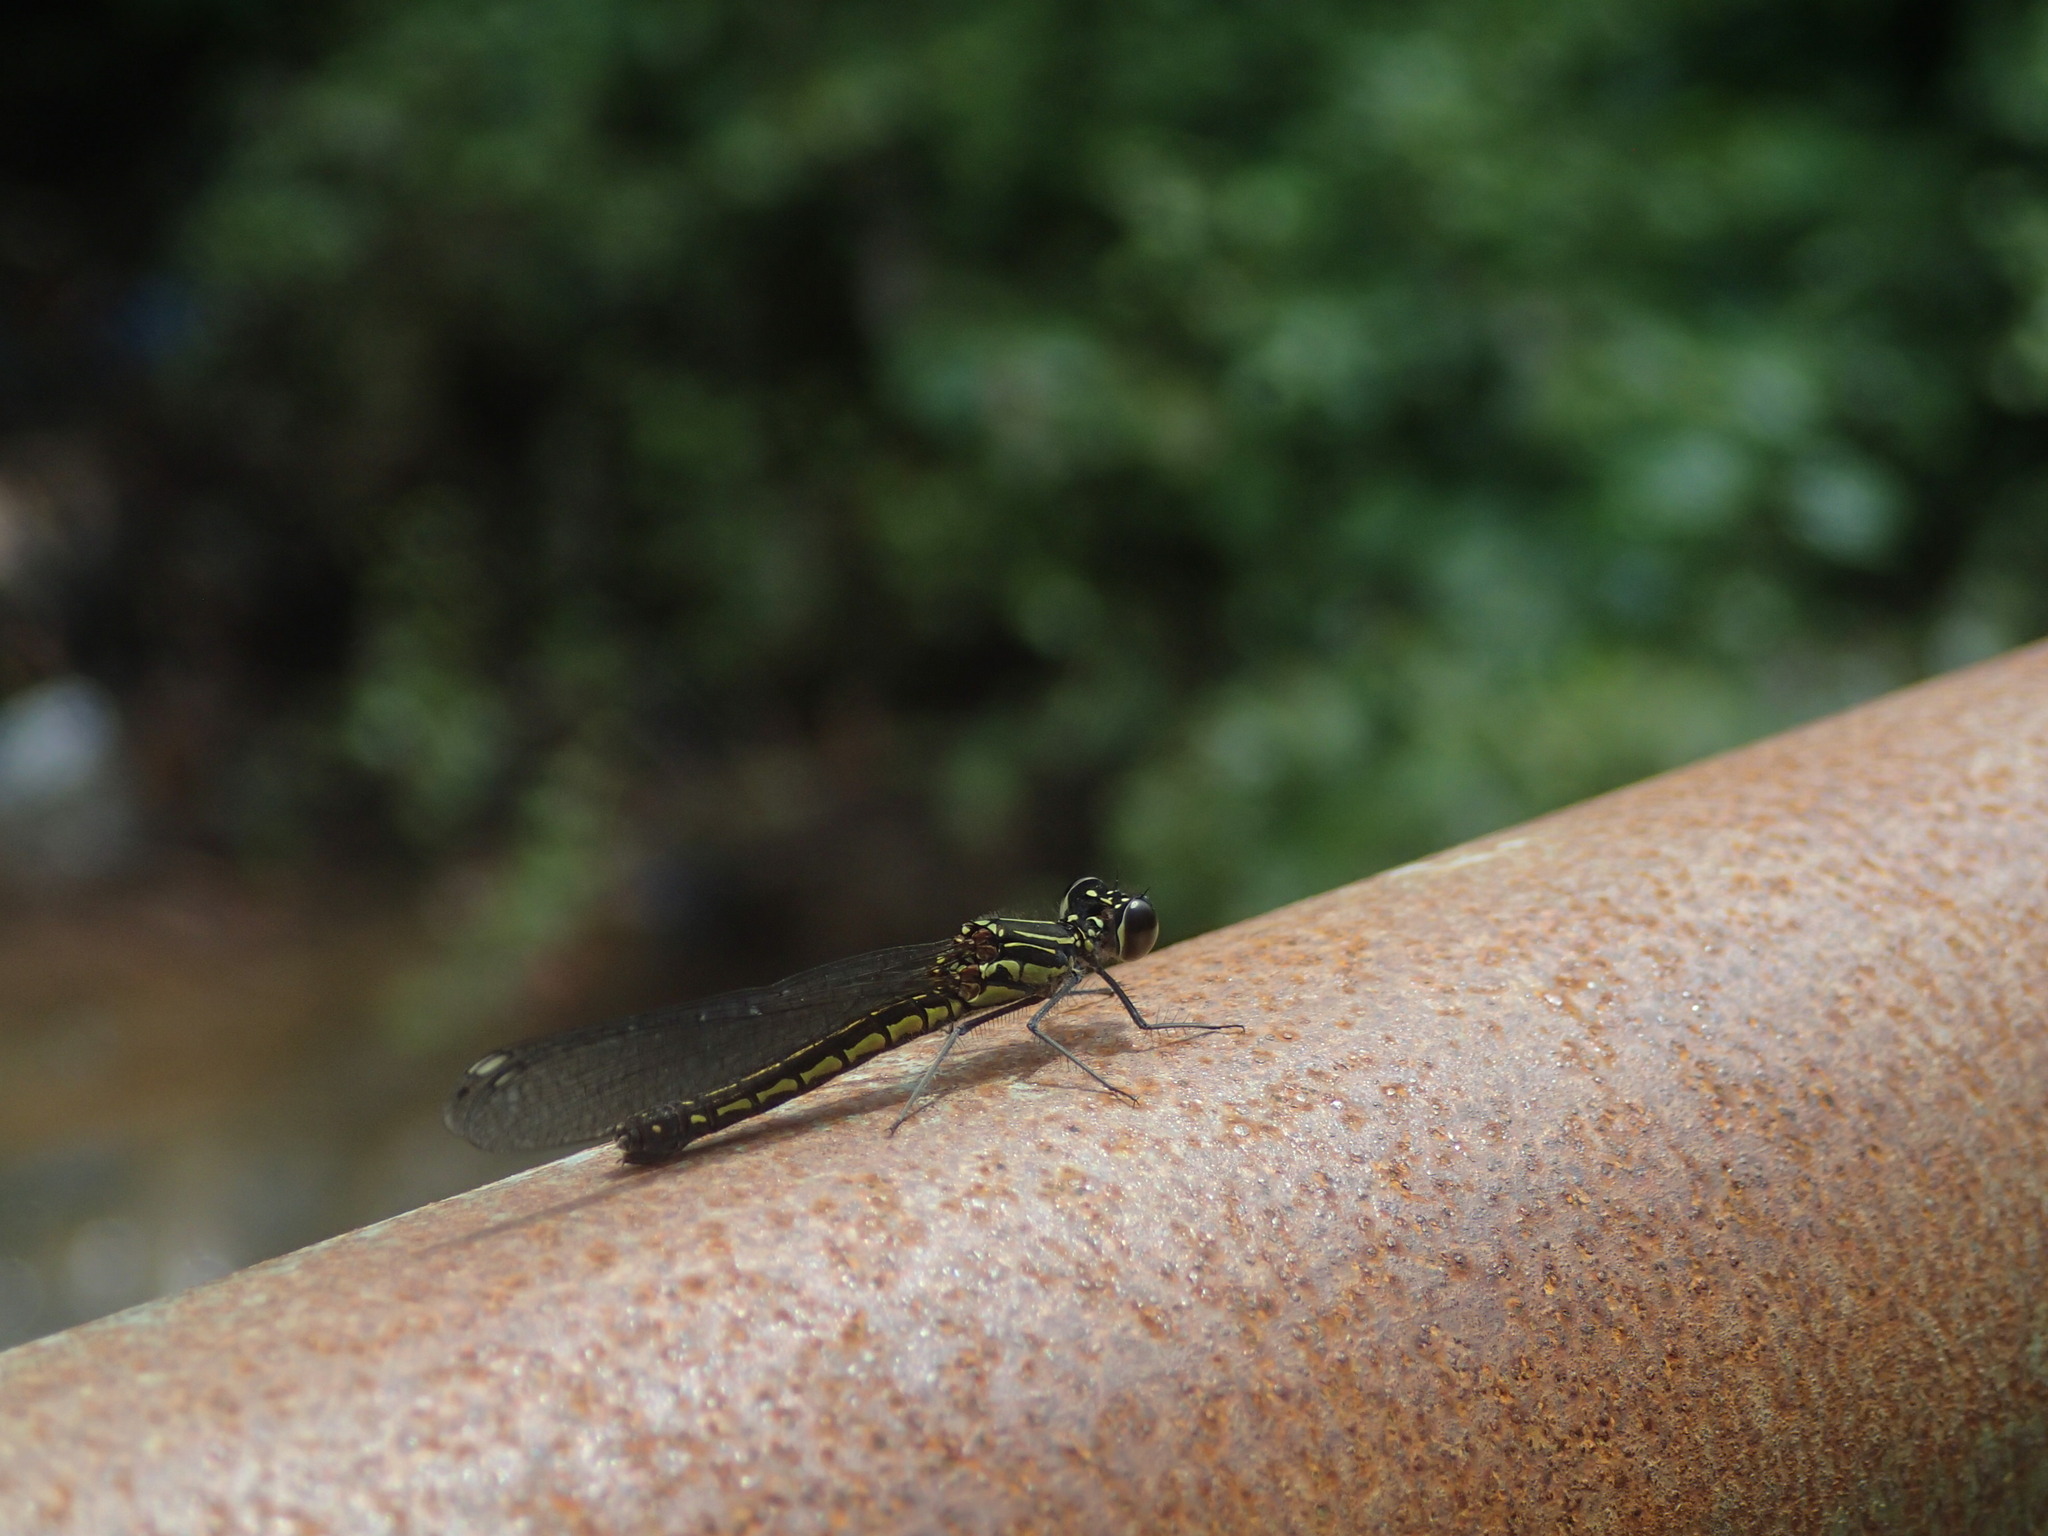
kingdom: Animalia
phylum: Arthropoda
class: Insecta
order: Odonata
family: Chlorocyphidae
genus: Libellago
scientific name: Libellago indica
